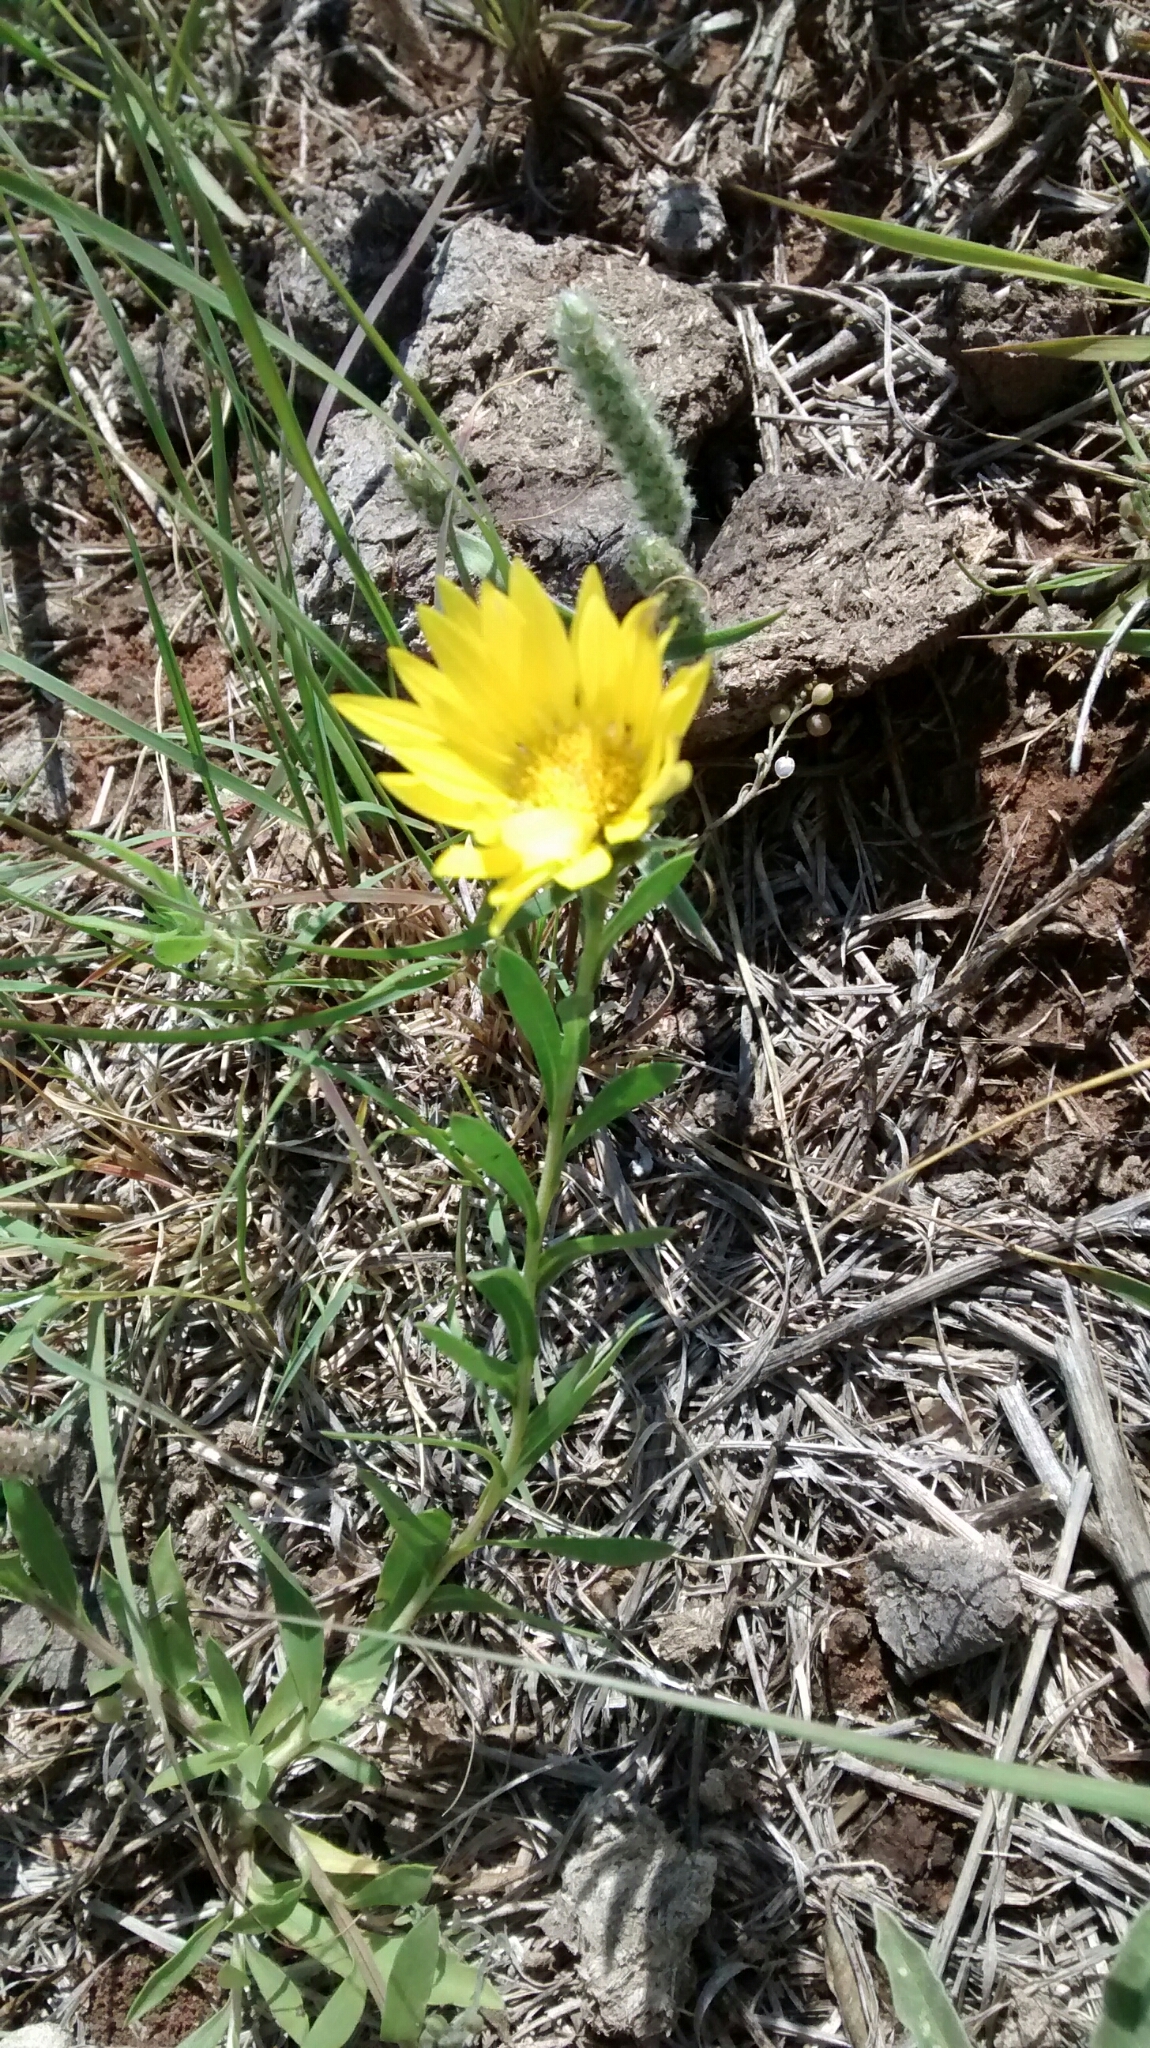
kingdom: Plantae
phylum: Tracheophyta
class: Magnoliopsida
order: Asterales
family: Asteraceae
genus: Xanthisma
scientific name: Xanthisma texanum
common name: Texas sleepy daisy
